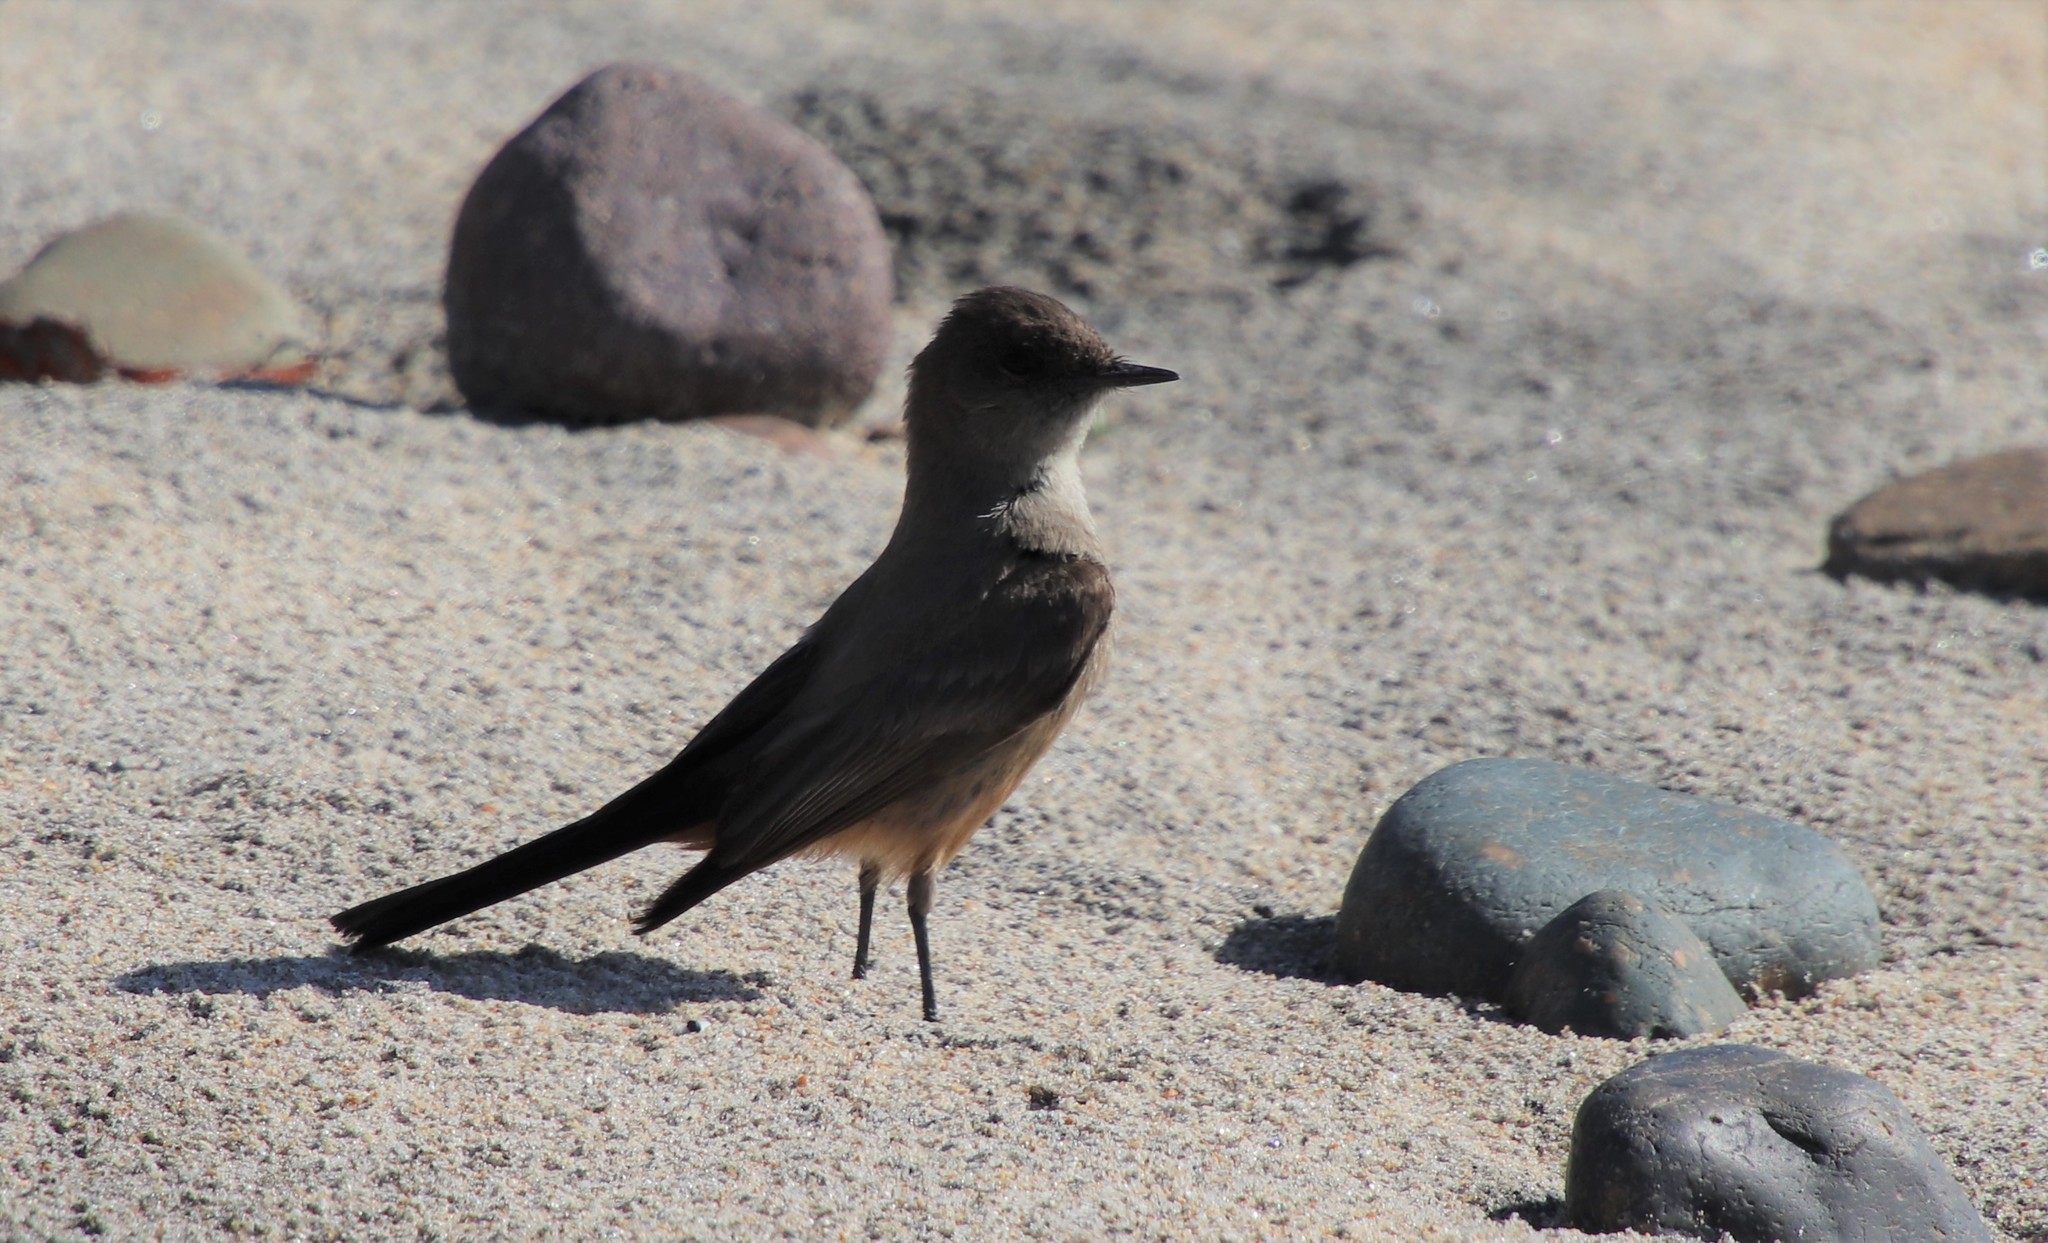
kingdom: Animalia
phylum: Chordata
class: Aves
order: Passeriformes
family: Tyrannidae
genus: Sayornis
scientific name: Sayornis saya
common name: Say's phoebe
